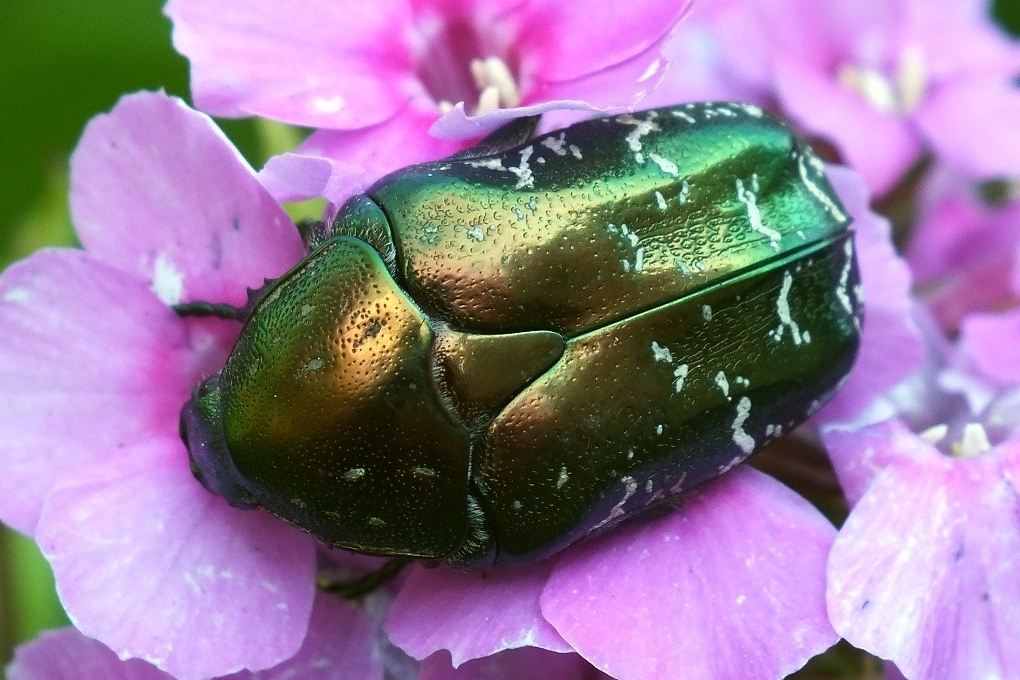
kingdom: Animalia
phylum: Arthropoda
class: Insecta
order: Coleoptera
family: Scarabaeidae
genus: Protaetia
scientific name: Protaetia cuprea
